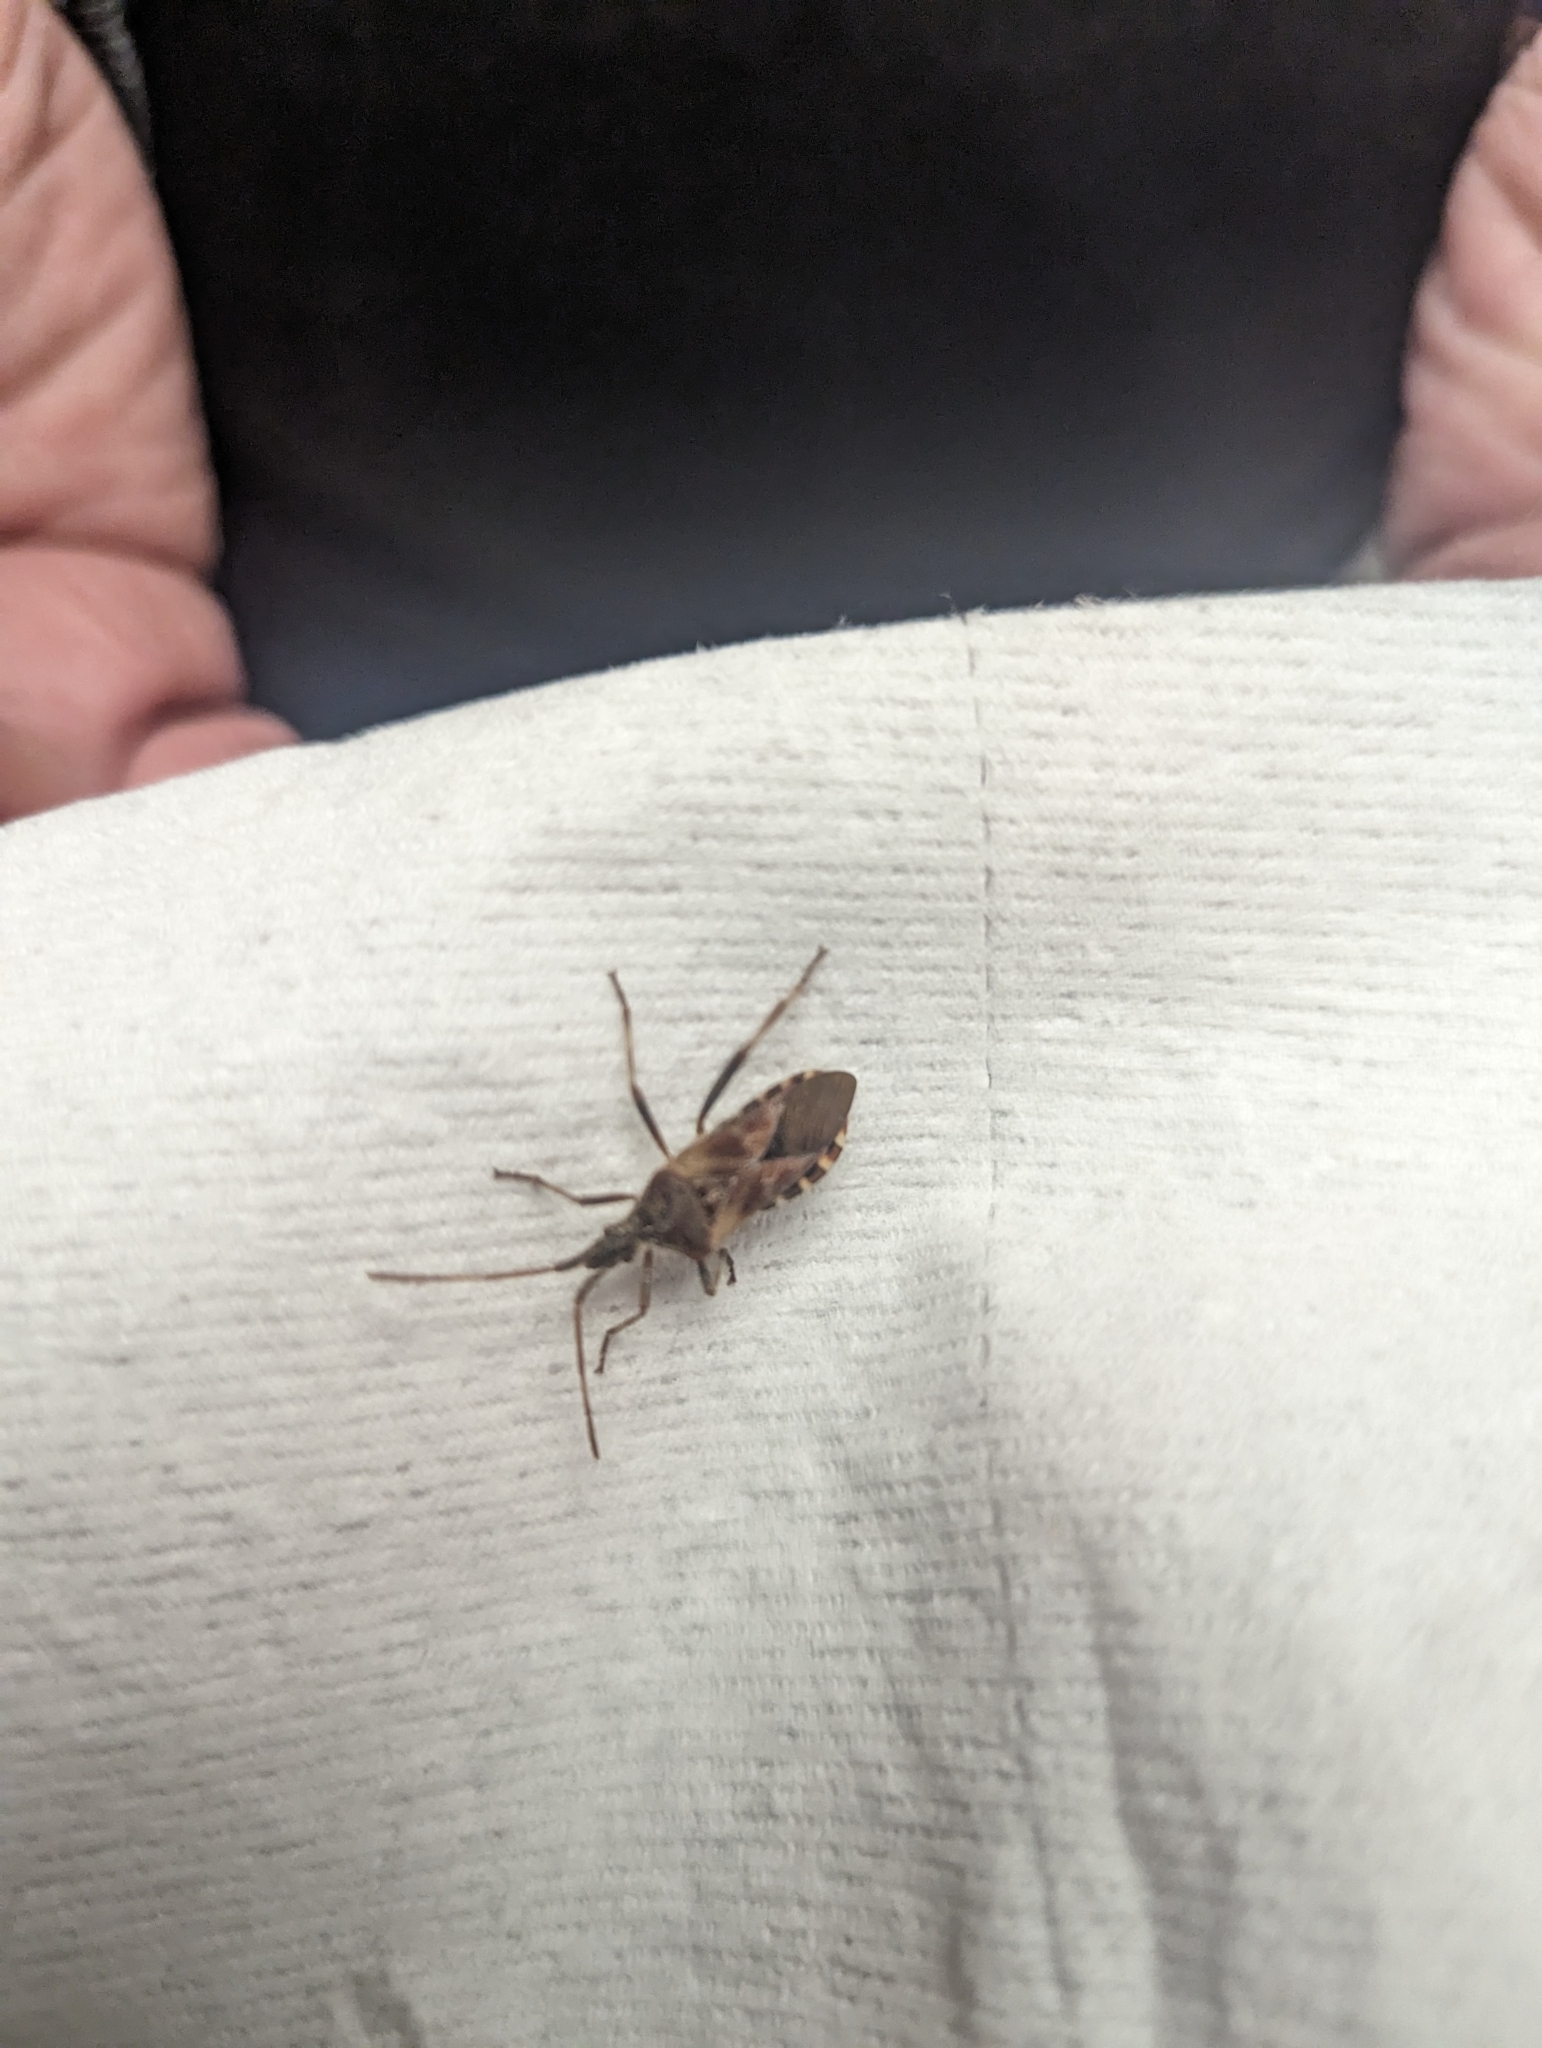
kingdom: Animalia
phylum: Arthropoda
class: Insecta
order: Hemiptera
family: Coreidae
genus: Leptoglossus
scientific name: Leptoglossus occidentalis
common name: Western conifer-seed bug
